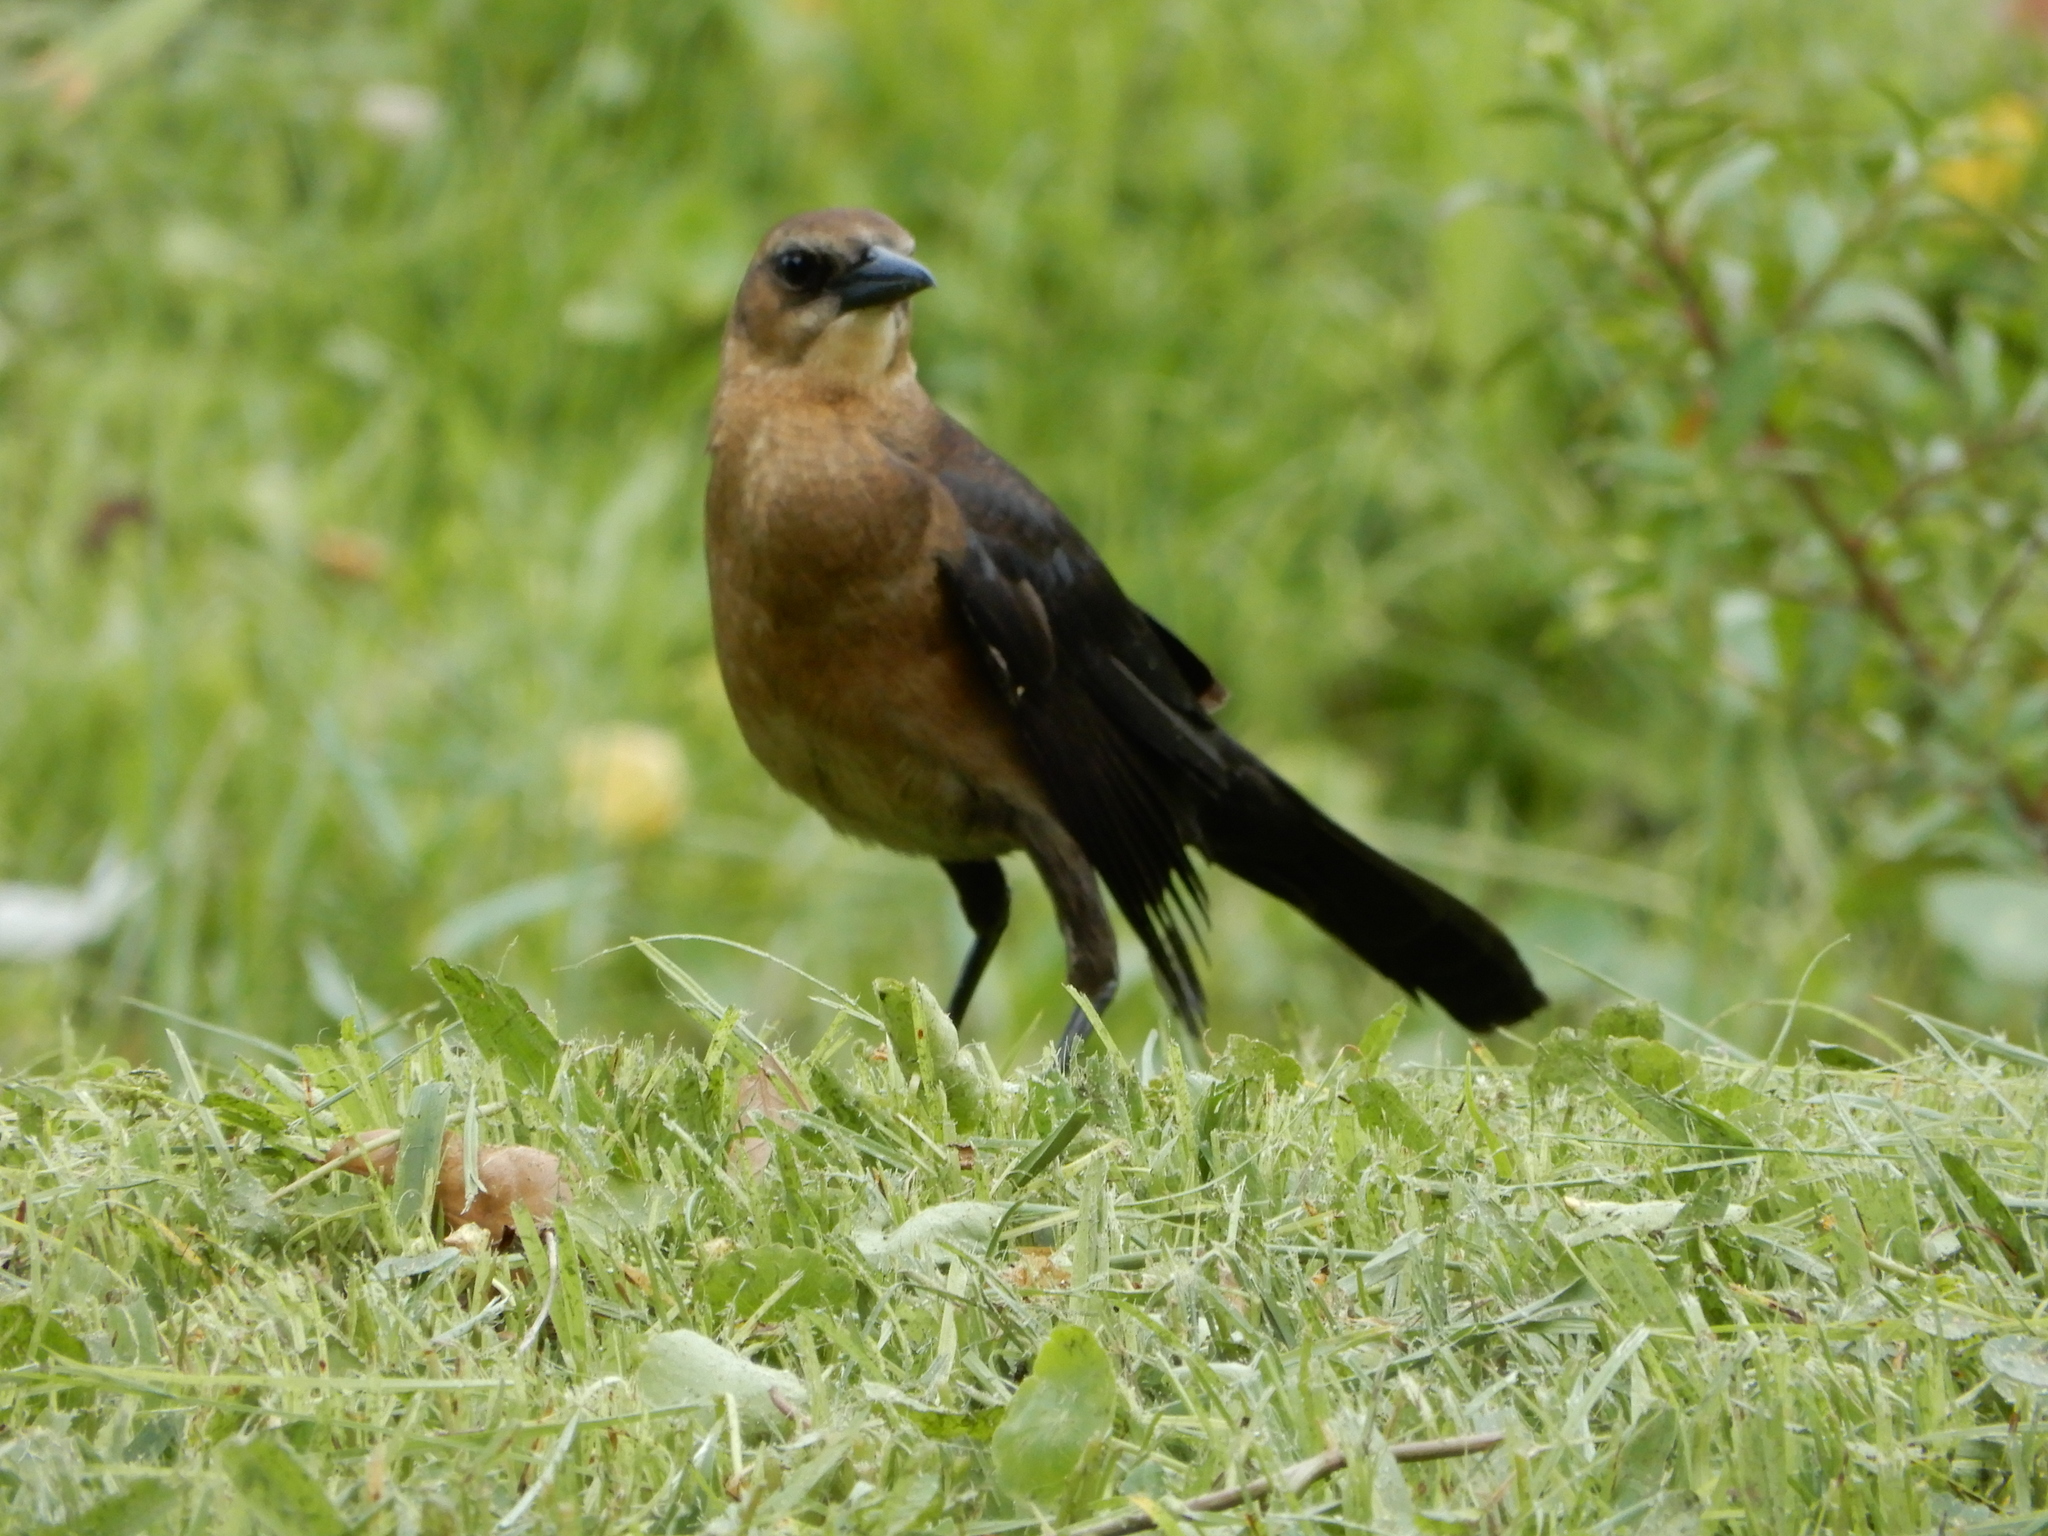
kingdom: Animalia
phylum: Chordata
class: Aves
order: Passeriformes
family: Icteridae
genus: Quiscalus
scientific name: Quiscalus major
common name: Boat-tailed grackle
